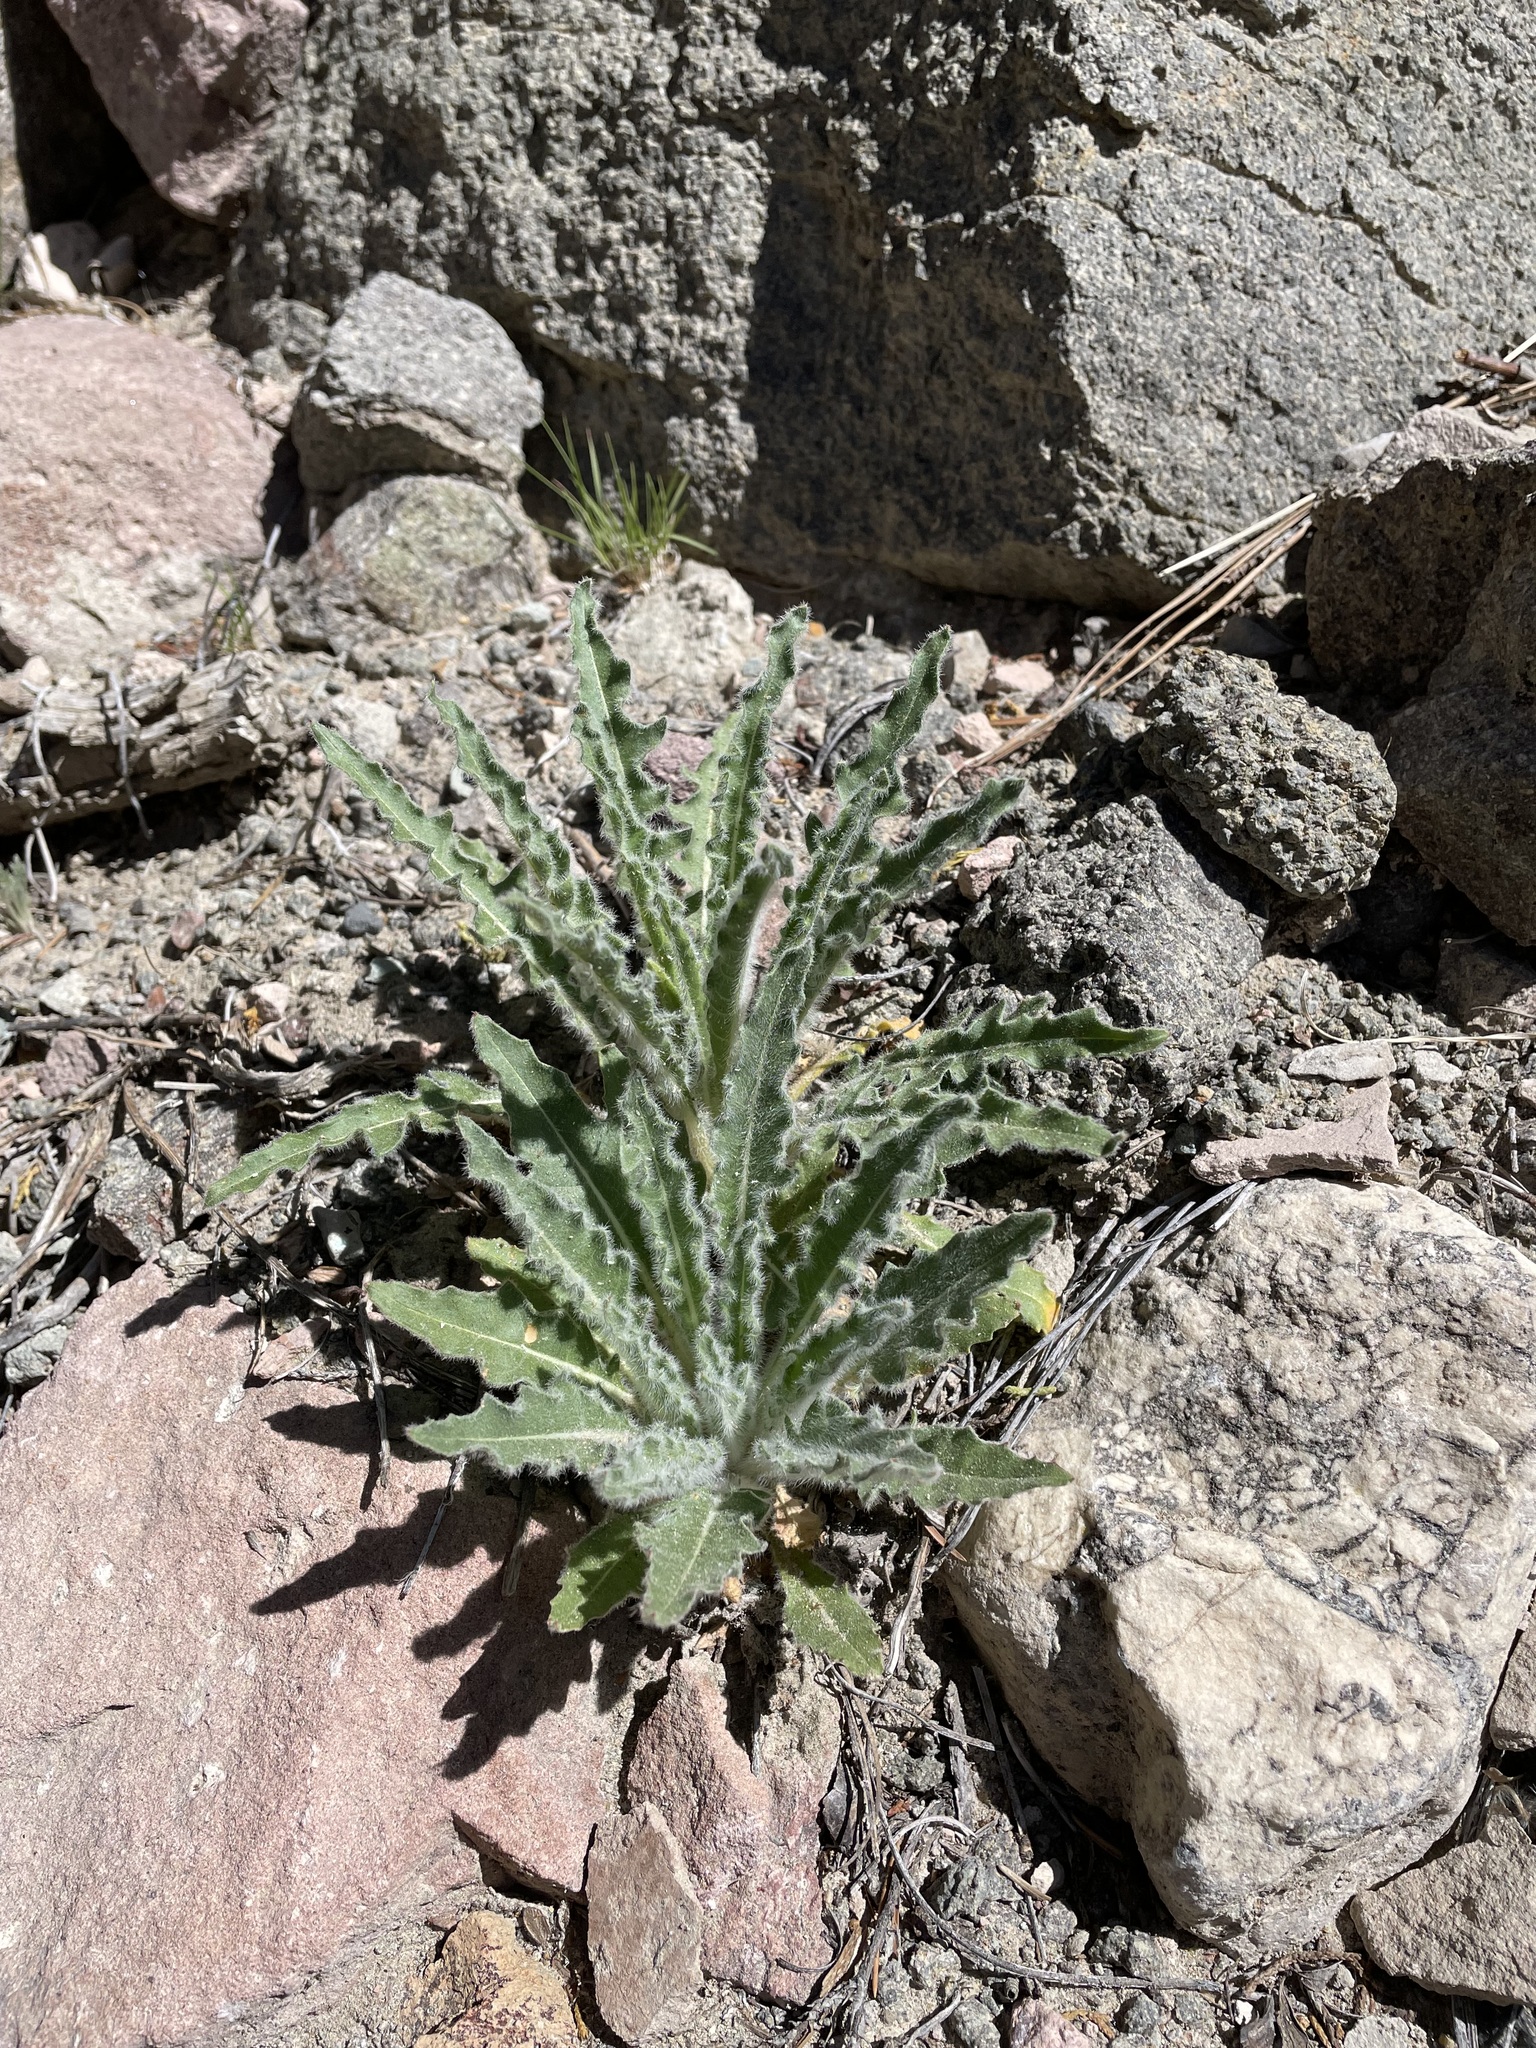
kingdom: Plantae
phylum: Tracheophyta
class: Magnoliopsida
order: Myrtales
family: Onagraceae
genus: Oenothera
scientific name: Oenothera cespitosa
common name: Tufted evening-primrose
